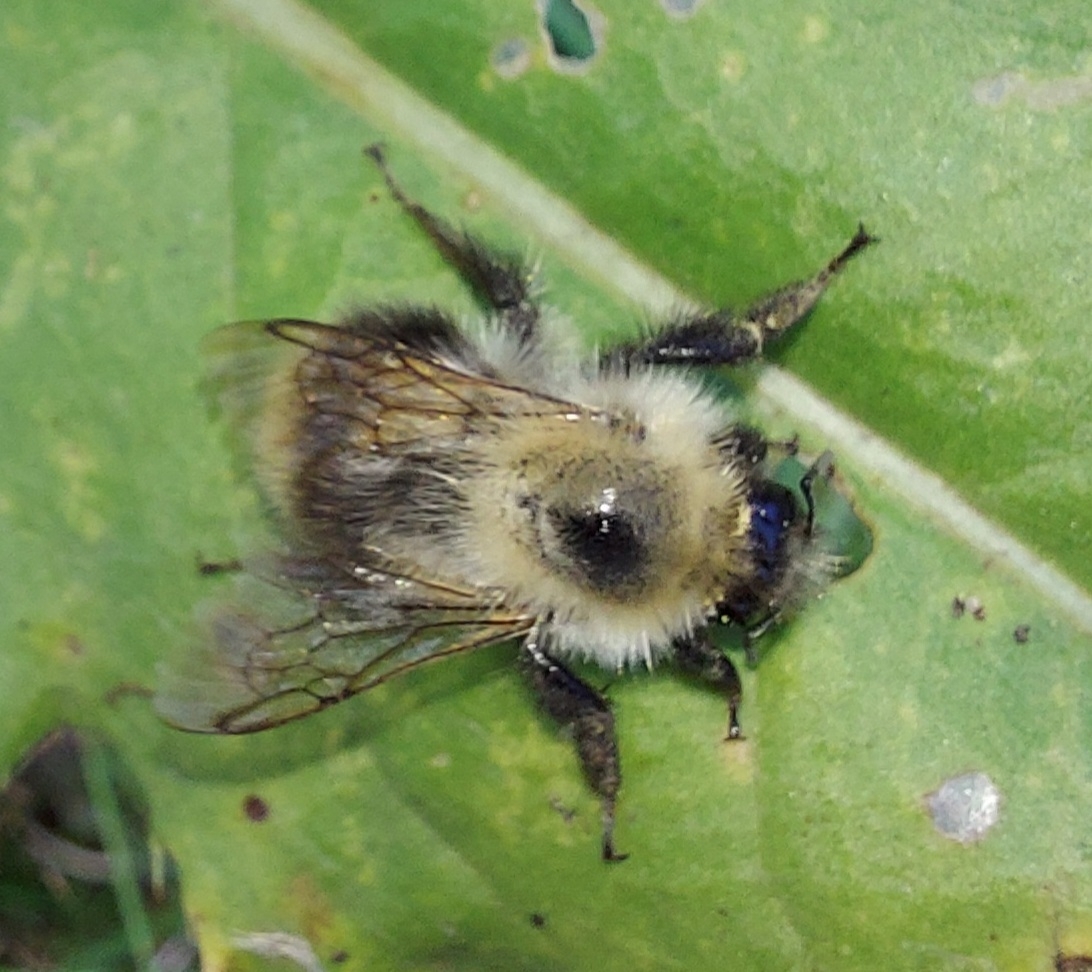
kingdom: Animalia
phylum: Arthropoda
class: Insecta
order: Hymenoptera
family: Apidae
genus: Bombus
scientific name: Bombus pascuorum
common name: Common carder bee
